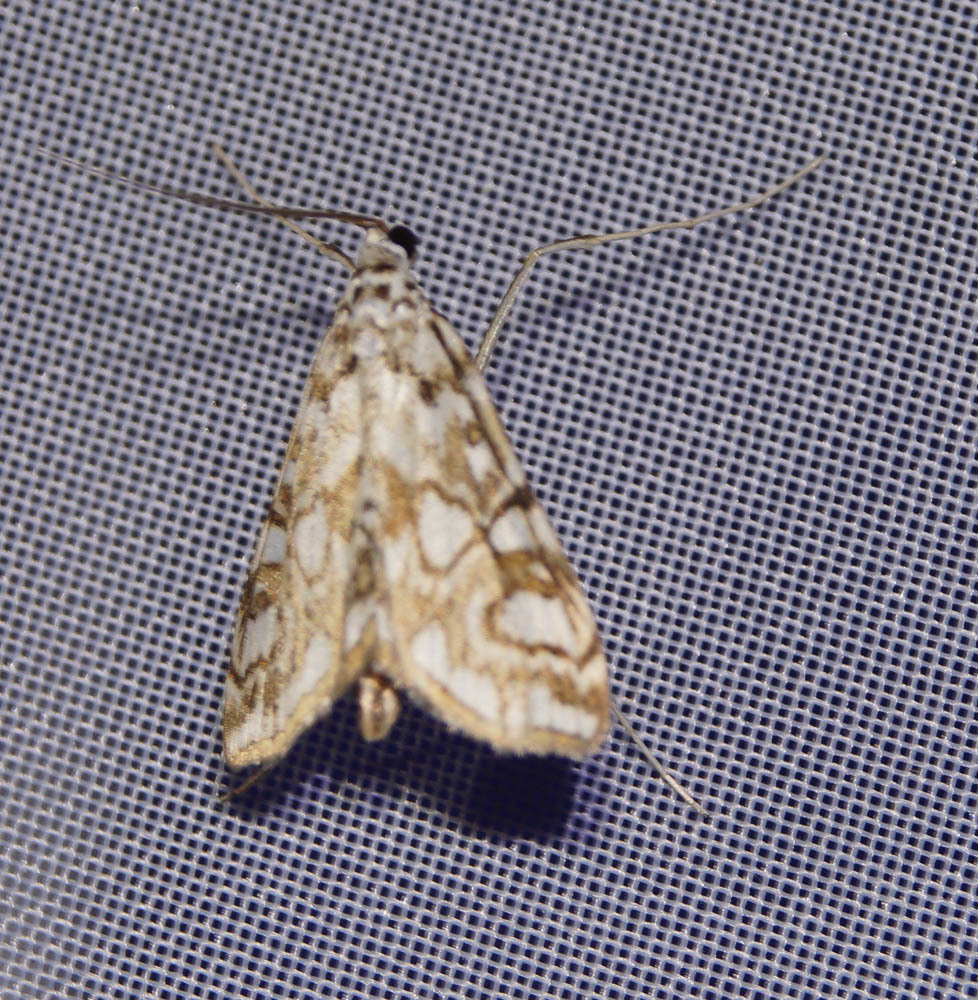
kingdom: Animalia
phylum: Arthropoda
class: Insecta
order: Lepidoptera
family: Crambidae
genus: Elophila
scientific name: Elophila nymphaeata
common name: Brown china-mark
